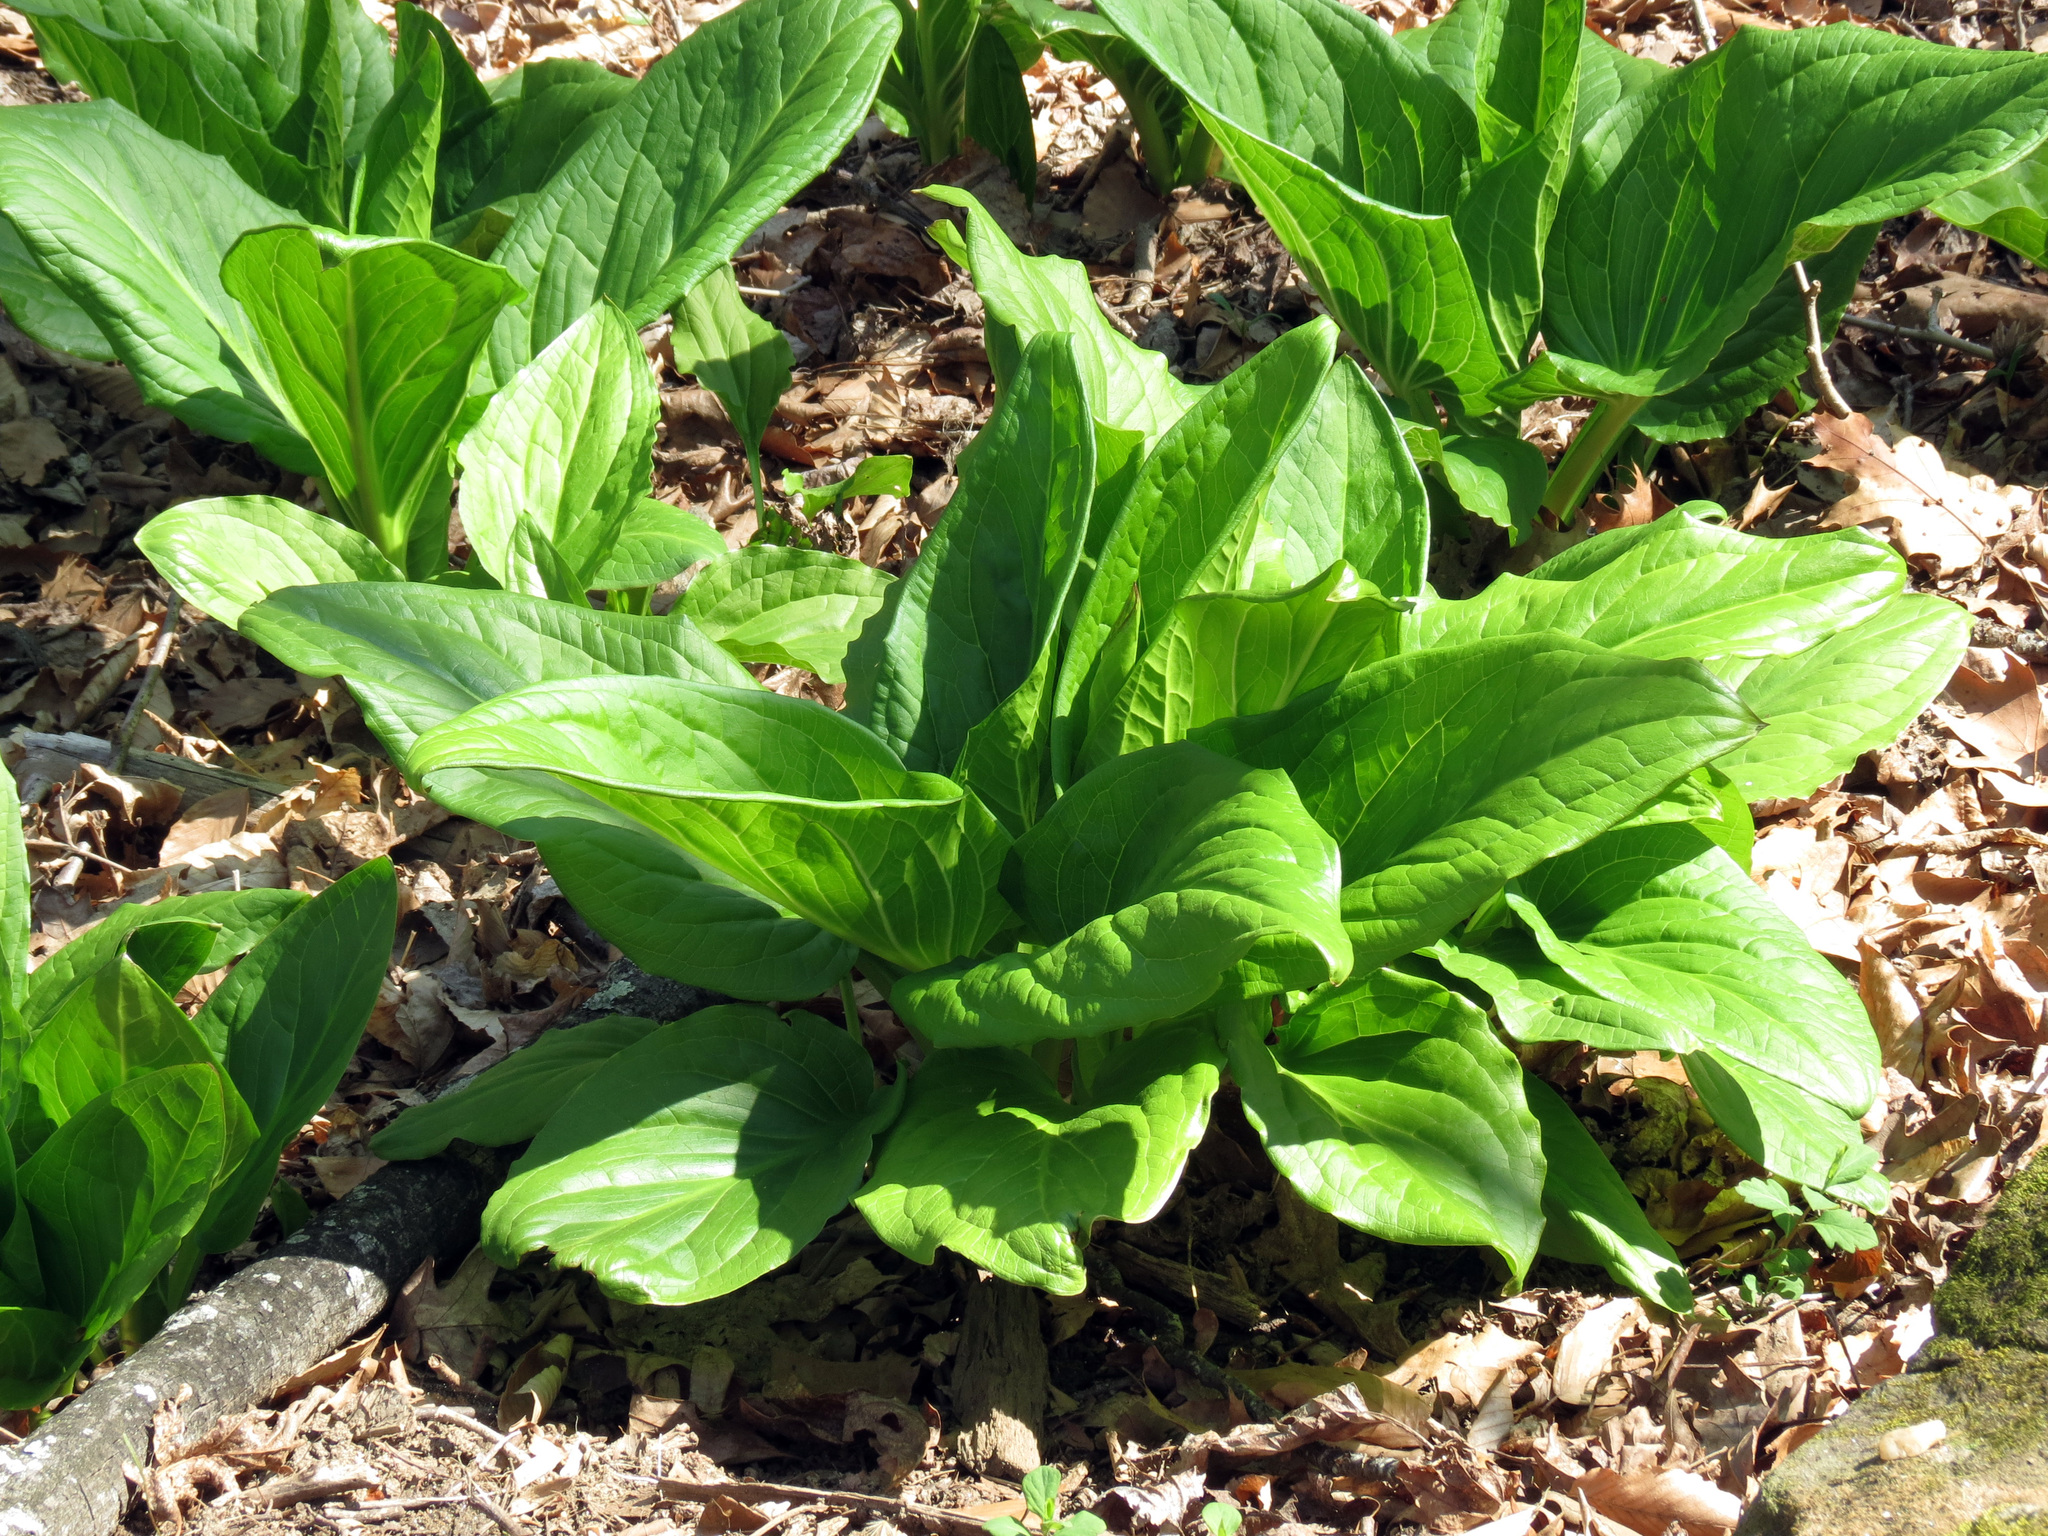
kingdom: Plantae
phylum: Tracheophyta
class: Liliopsida
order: Alismatales
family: Araceae
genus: Symplocarpus
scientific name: Symplocarpus foetidus
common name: Eastern skunk cabbage
